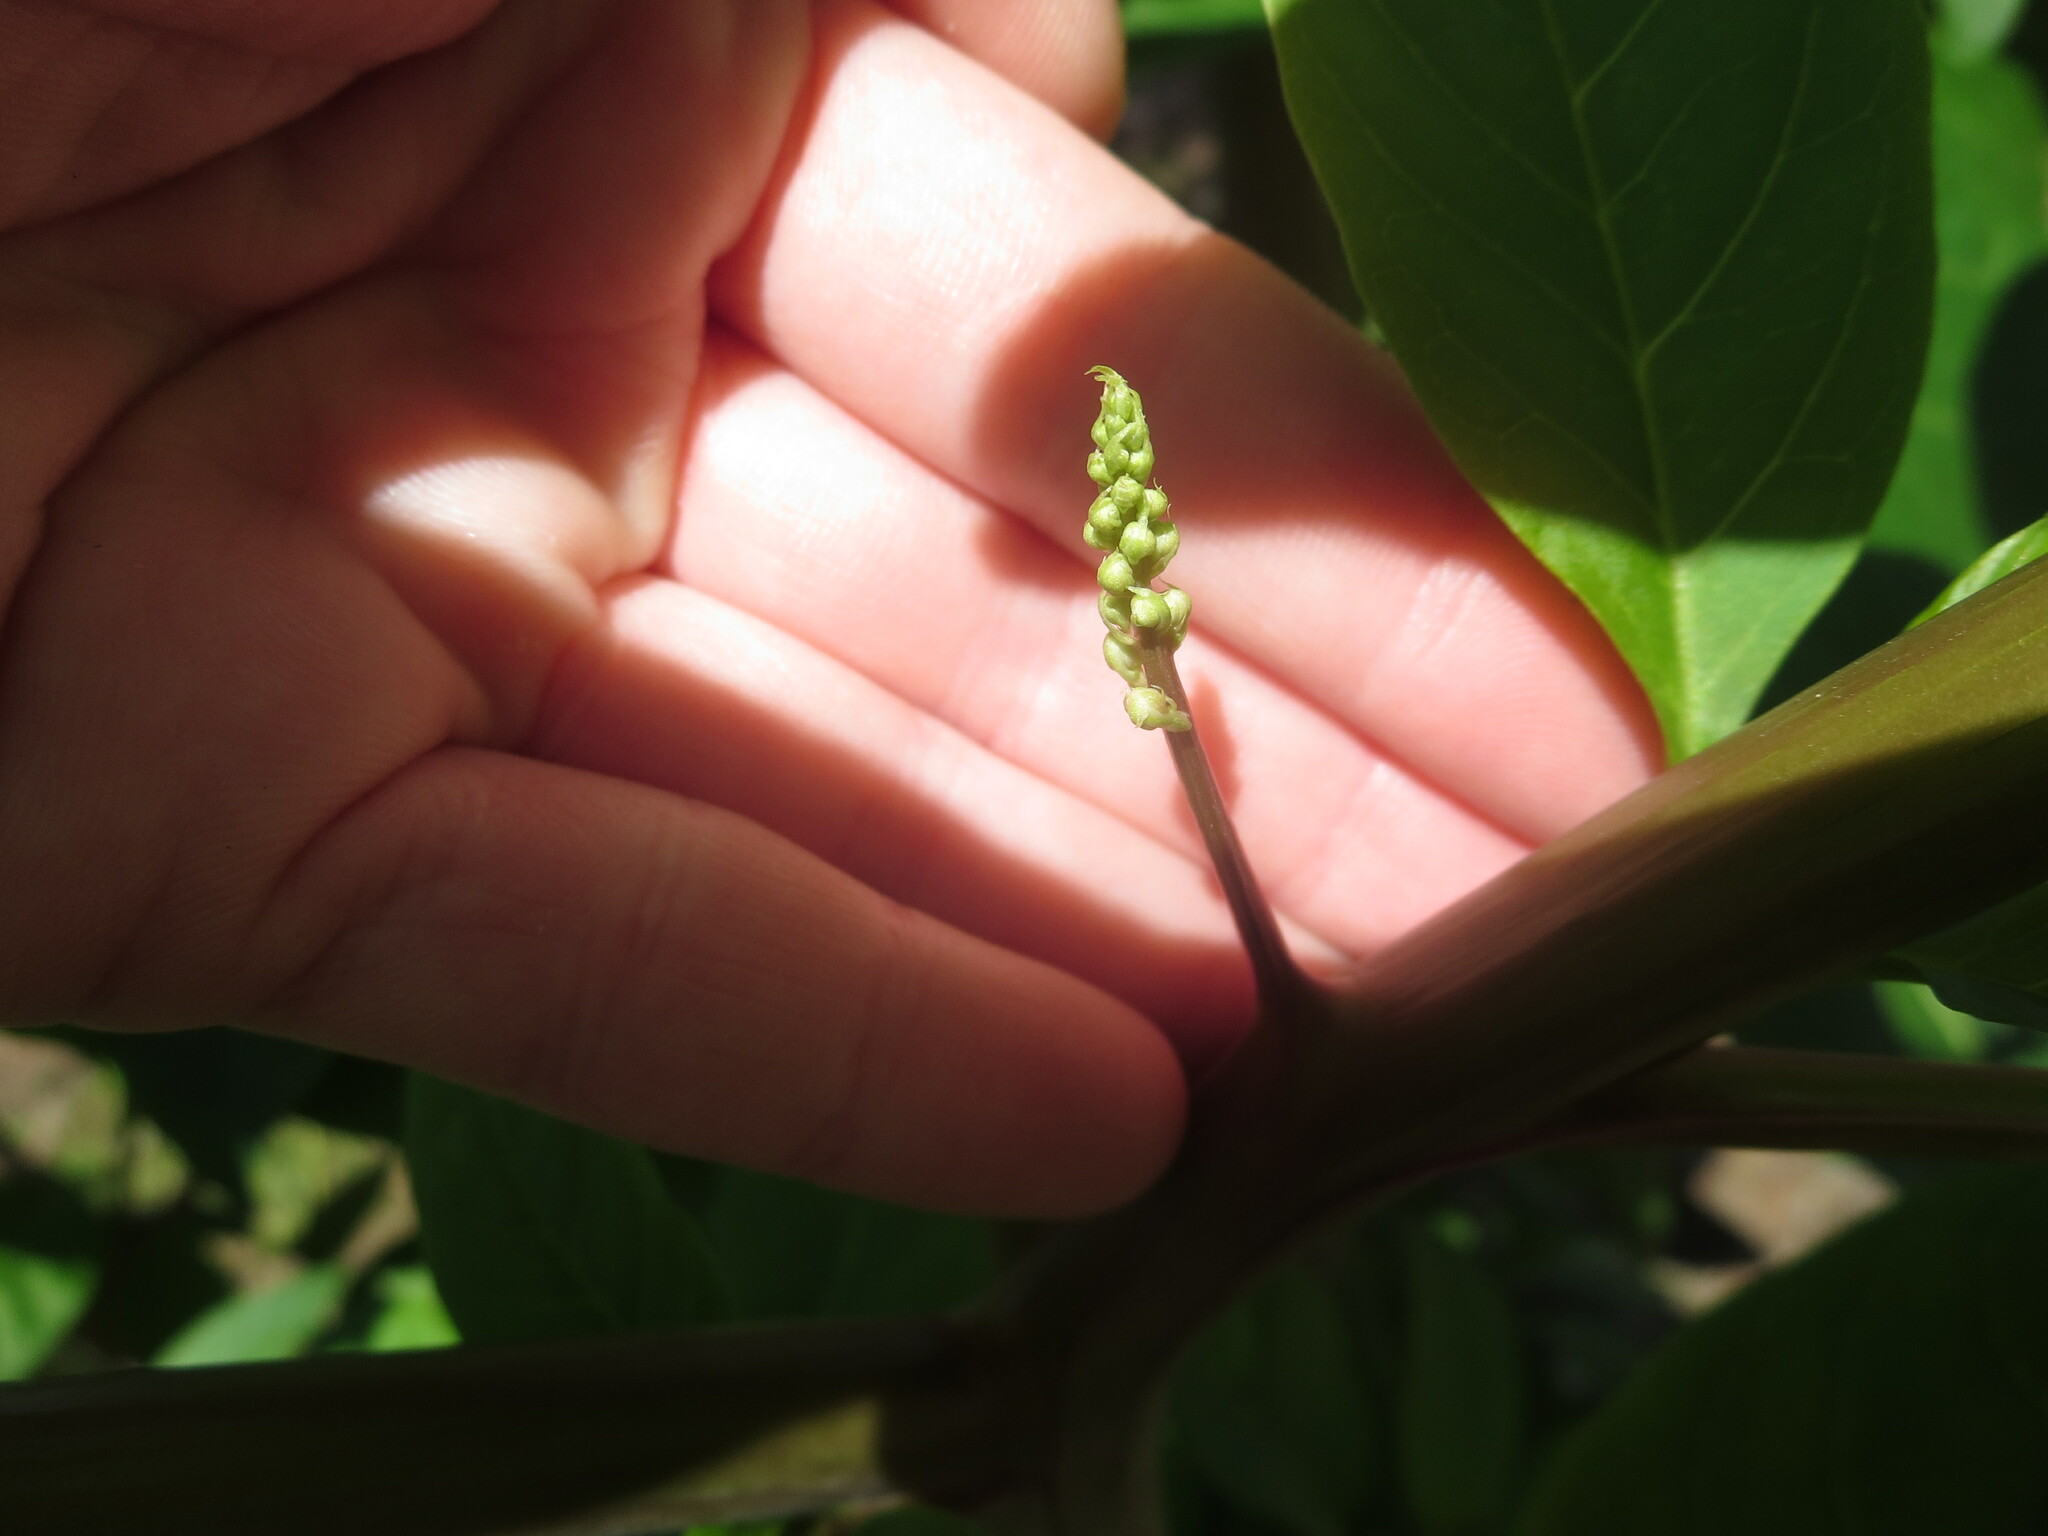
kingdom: Plantae
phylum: Tracheophyta
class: Magnoliopsida
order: Caryophyllales
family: Phytolaccaceae
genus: Phytolacca
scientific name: Phytolacca americana
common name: American pokeweed
